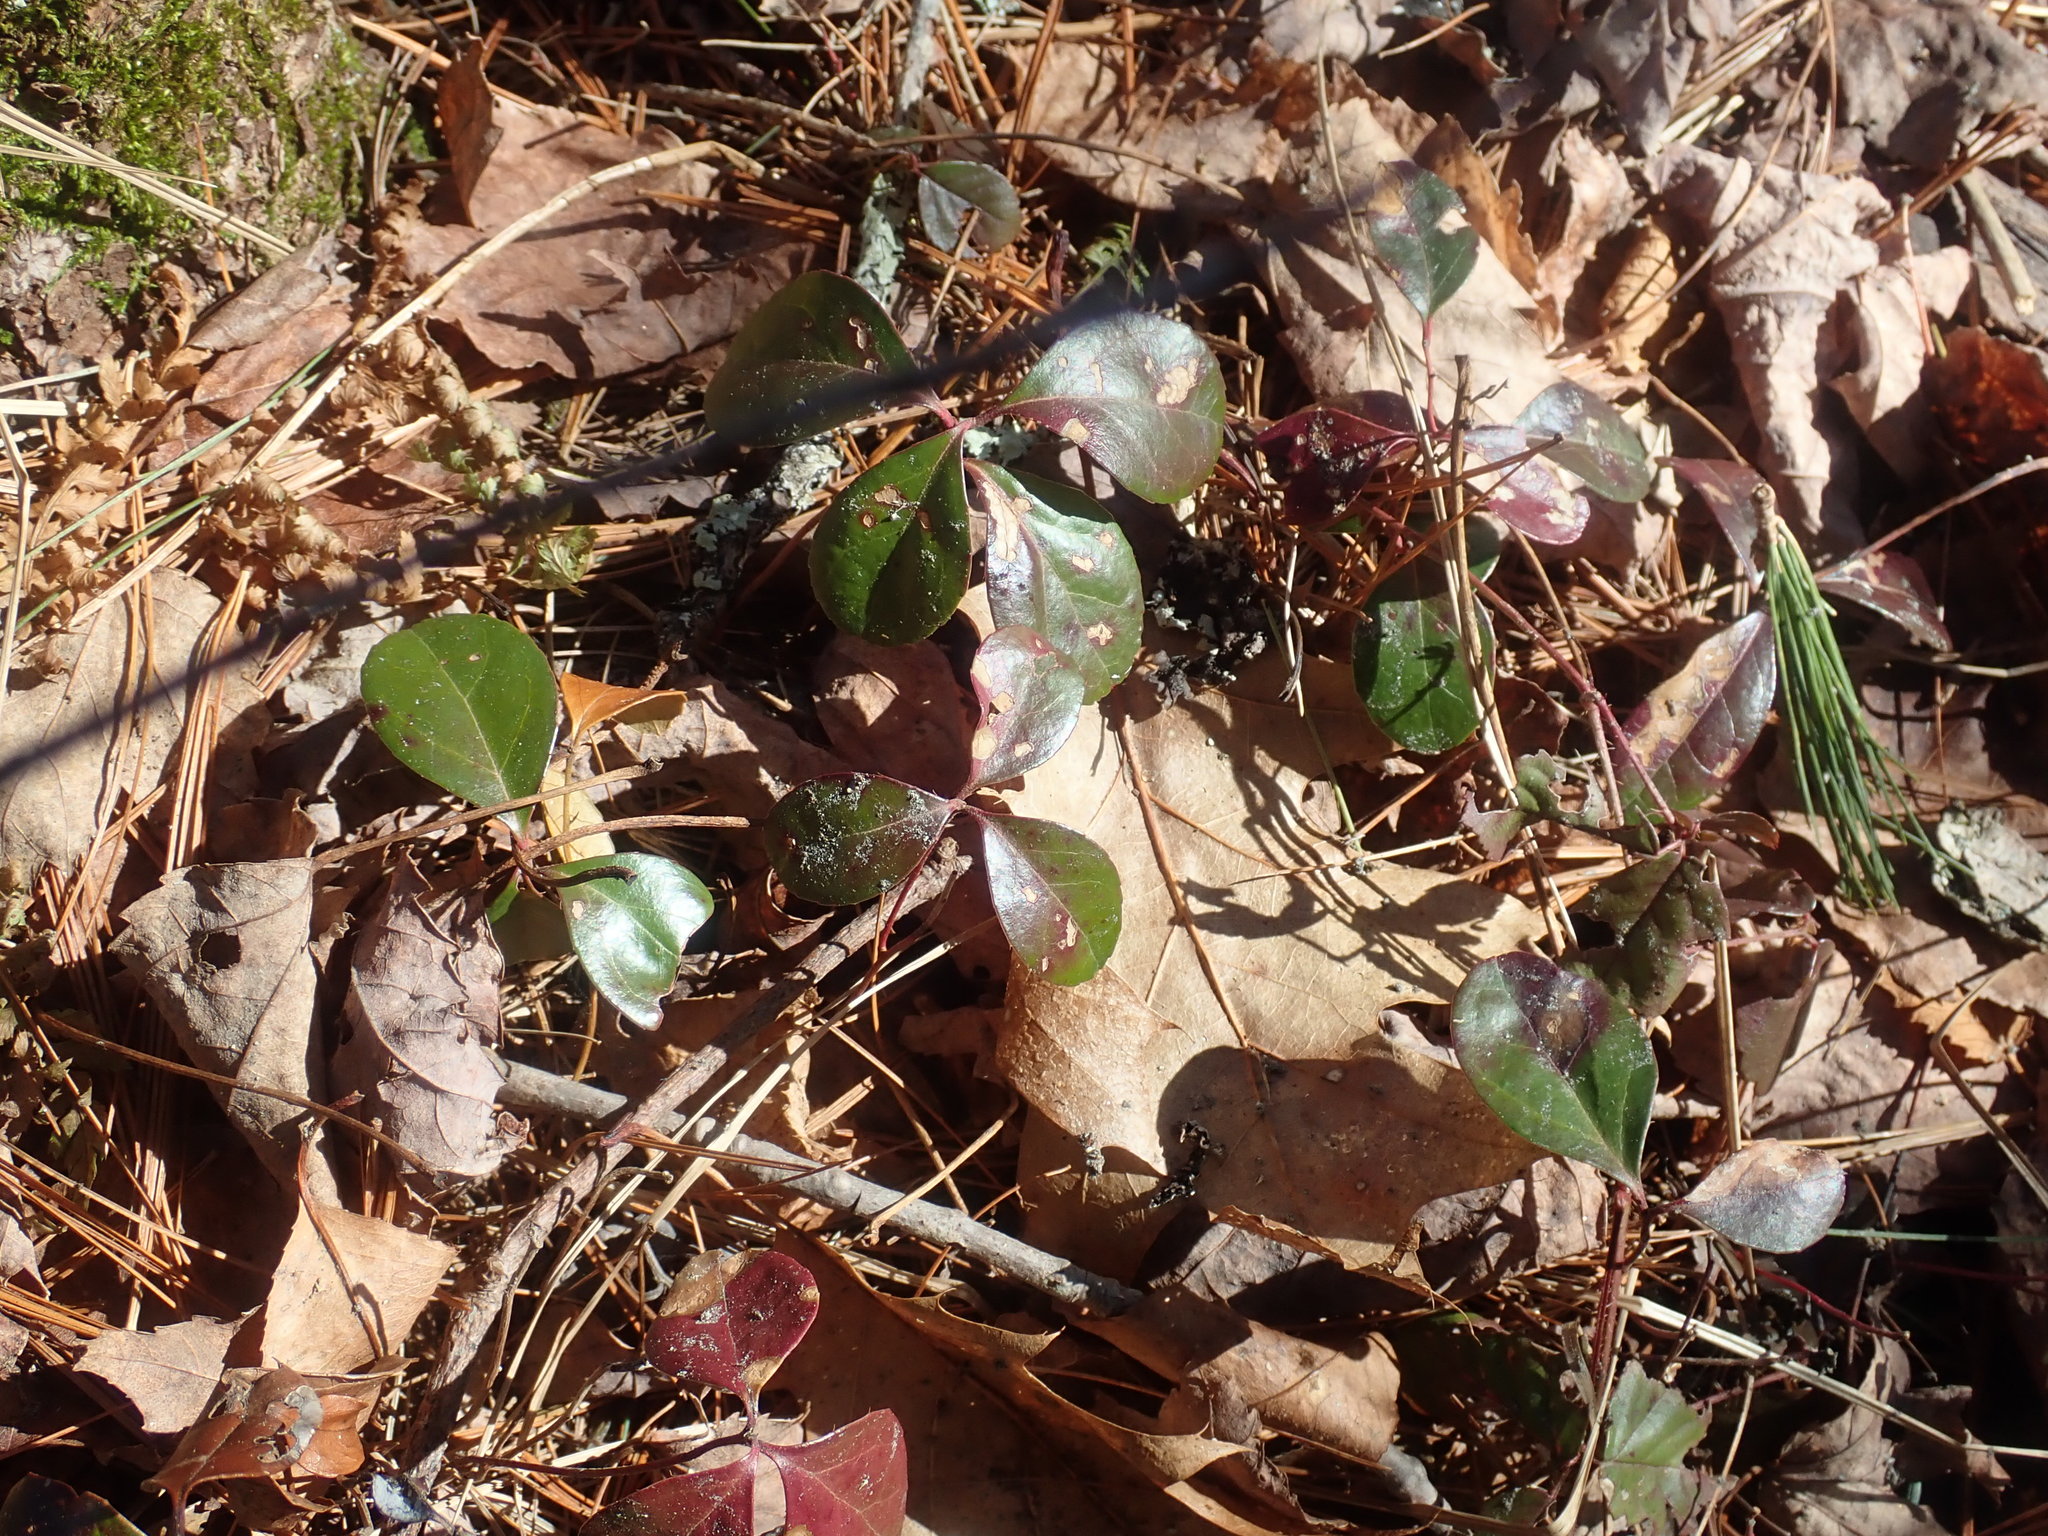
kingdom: Plantae
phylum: Tracheophyta
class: Magnoliopsida
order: Ericales
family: Ericaceae
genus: Gaultheria
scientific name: Gaultheria procumbens
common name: Checkerberry
